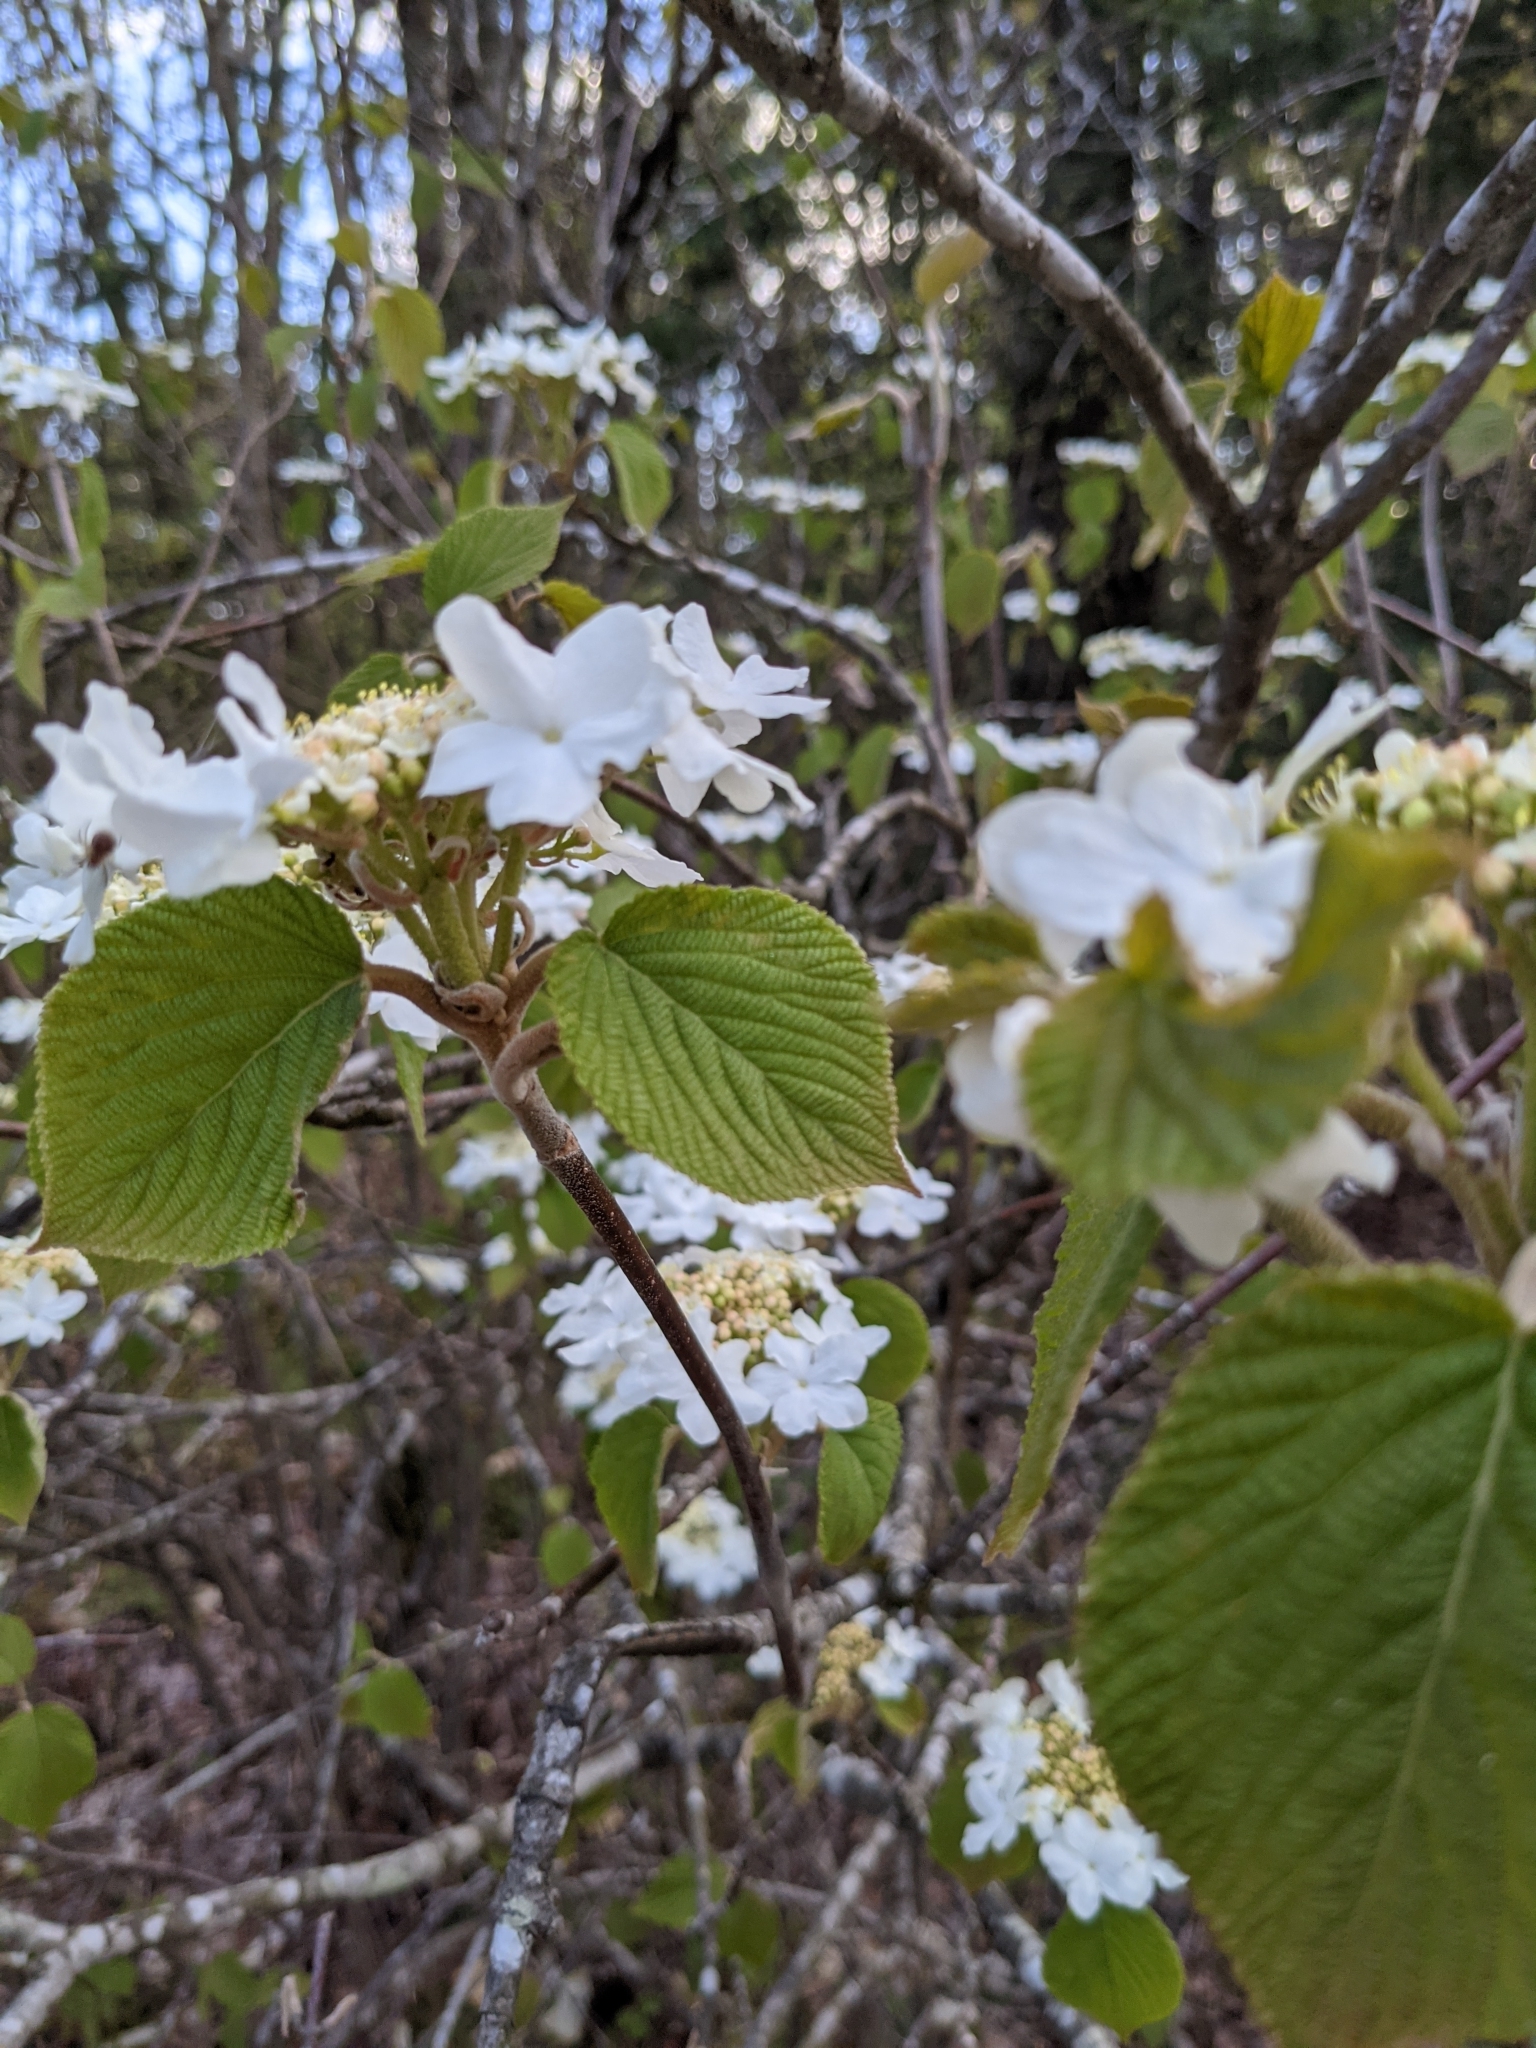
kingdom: Plantae
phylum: Tracheophyta
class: Magnoliopsida
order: Dipsacales
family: Viburnaceae
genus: Viburnum
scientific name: Viburnum lantanoides
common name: Hobblebush
